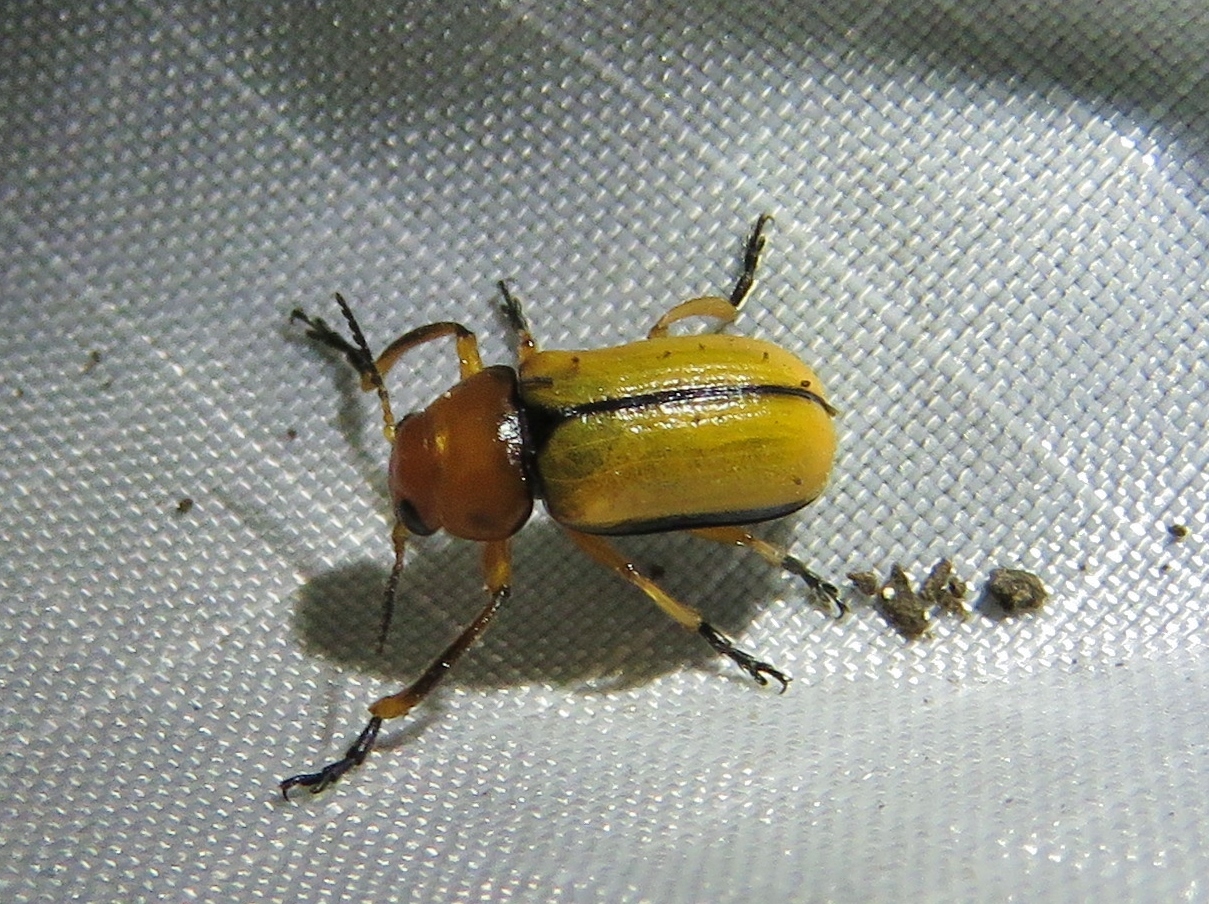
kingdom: Animalia
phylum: Arthropoda
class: Insecta
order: Coleoptera
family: Chrysomelidae
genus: Anomoea
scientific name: Anomoea laticlavia
